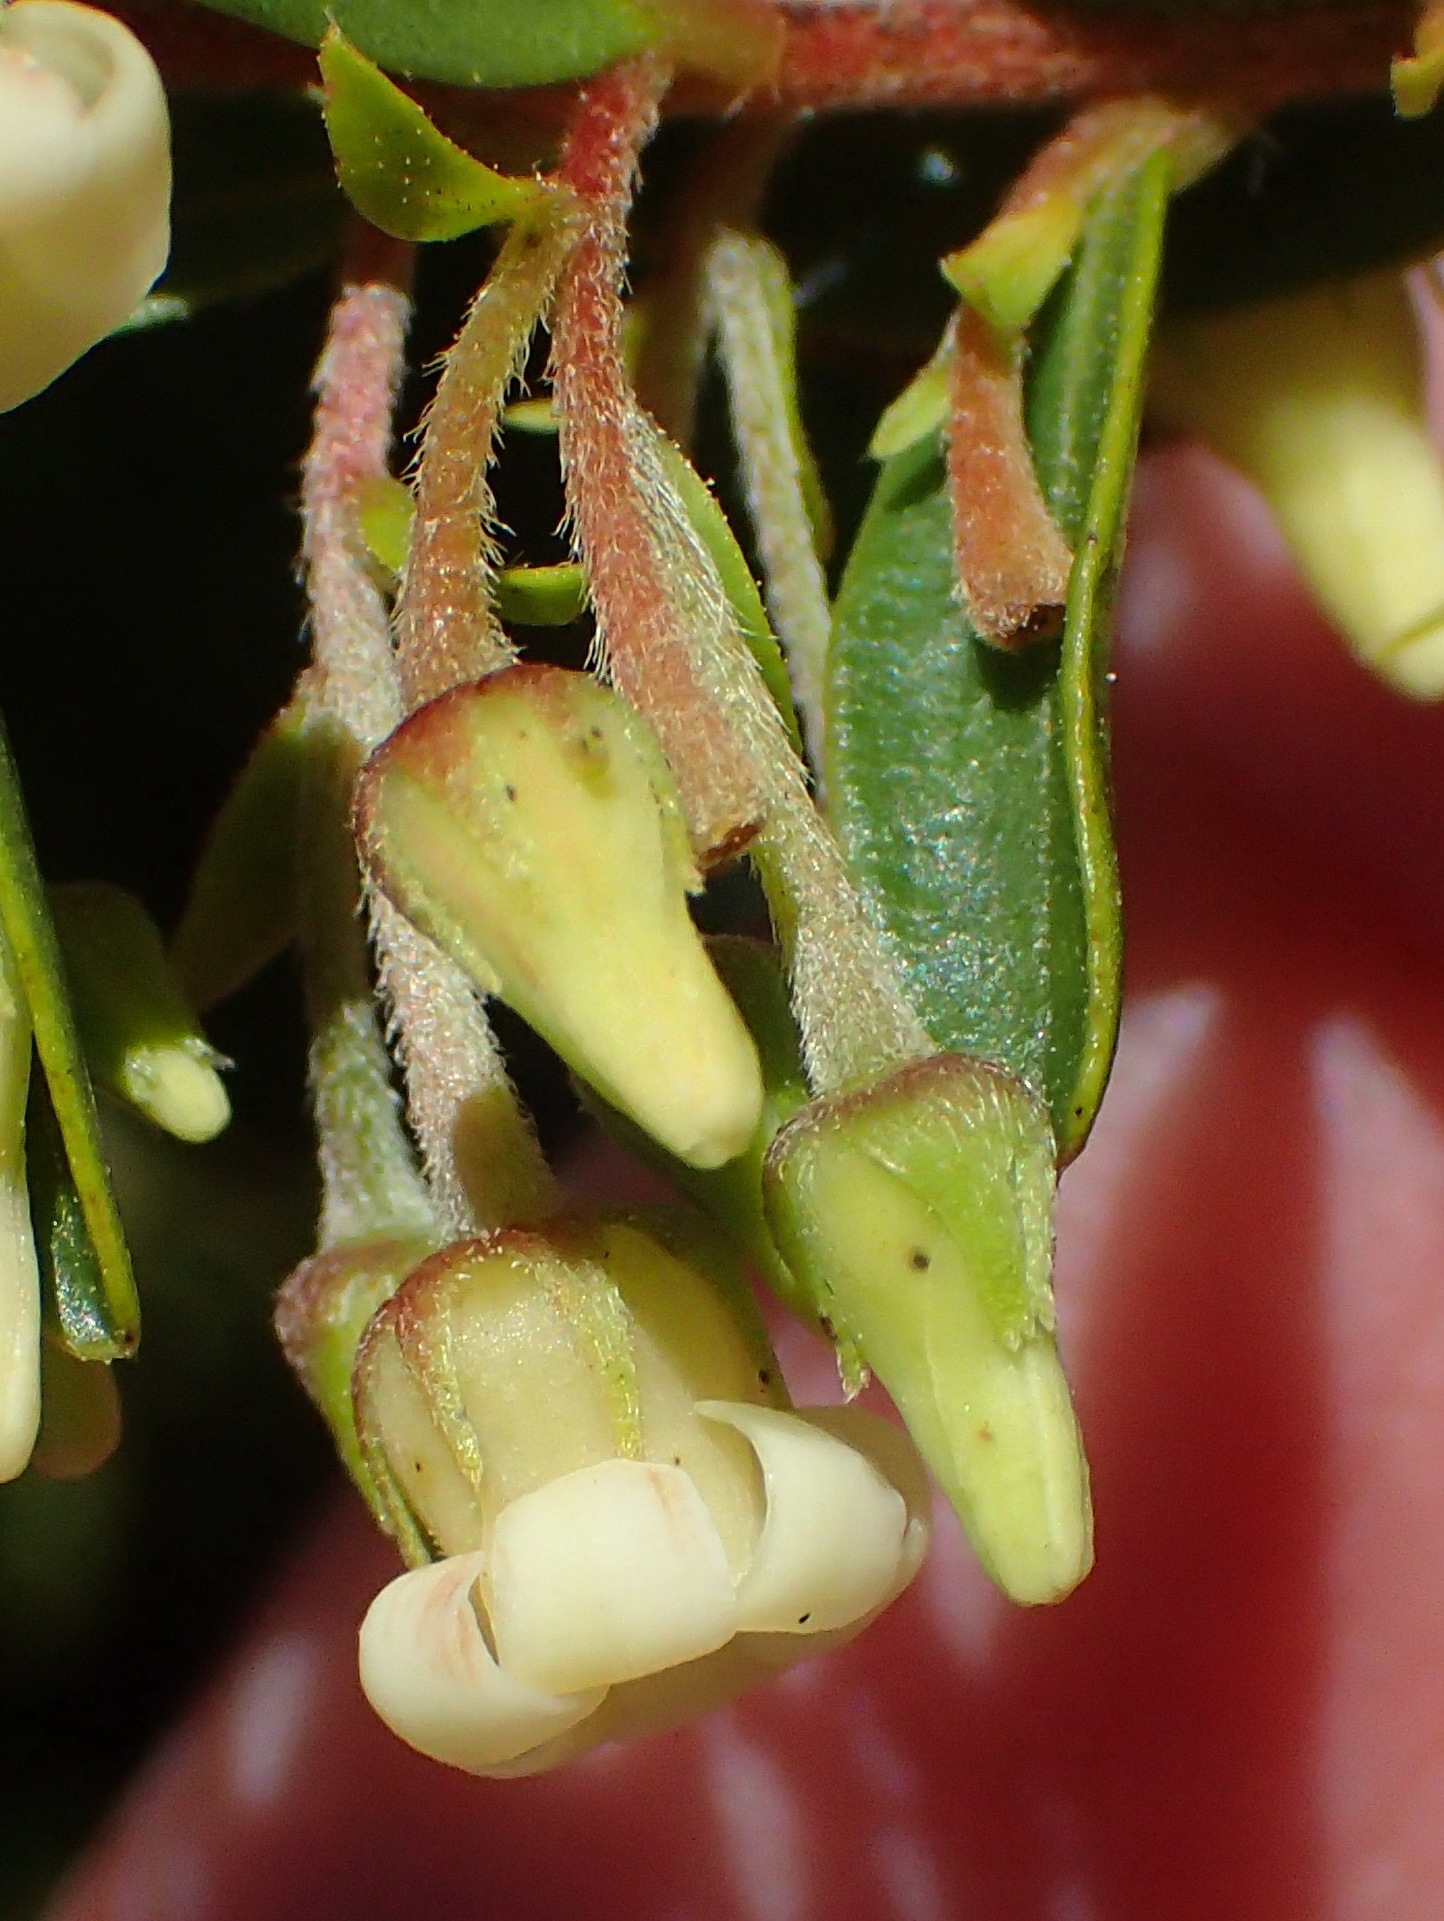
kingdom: Plantae
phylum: Tracheophyta
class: Magnoliopsida
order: Ericales
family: Ebenaceae
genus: Diospyros
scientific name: Diospyros glabra
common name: Fynbos star apple
